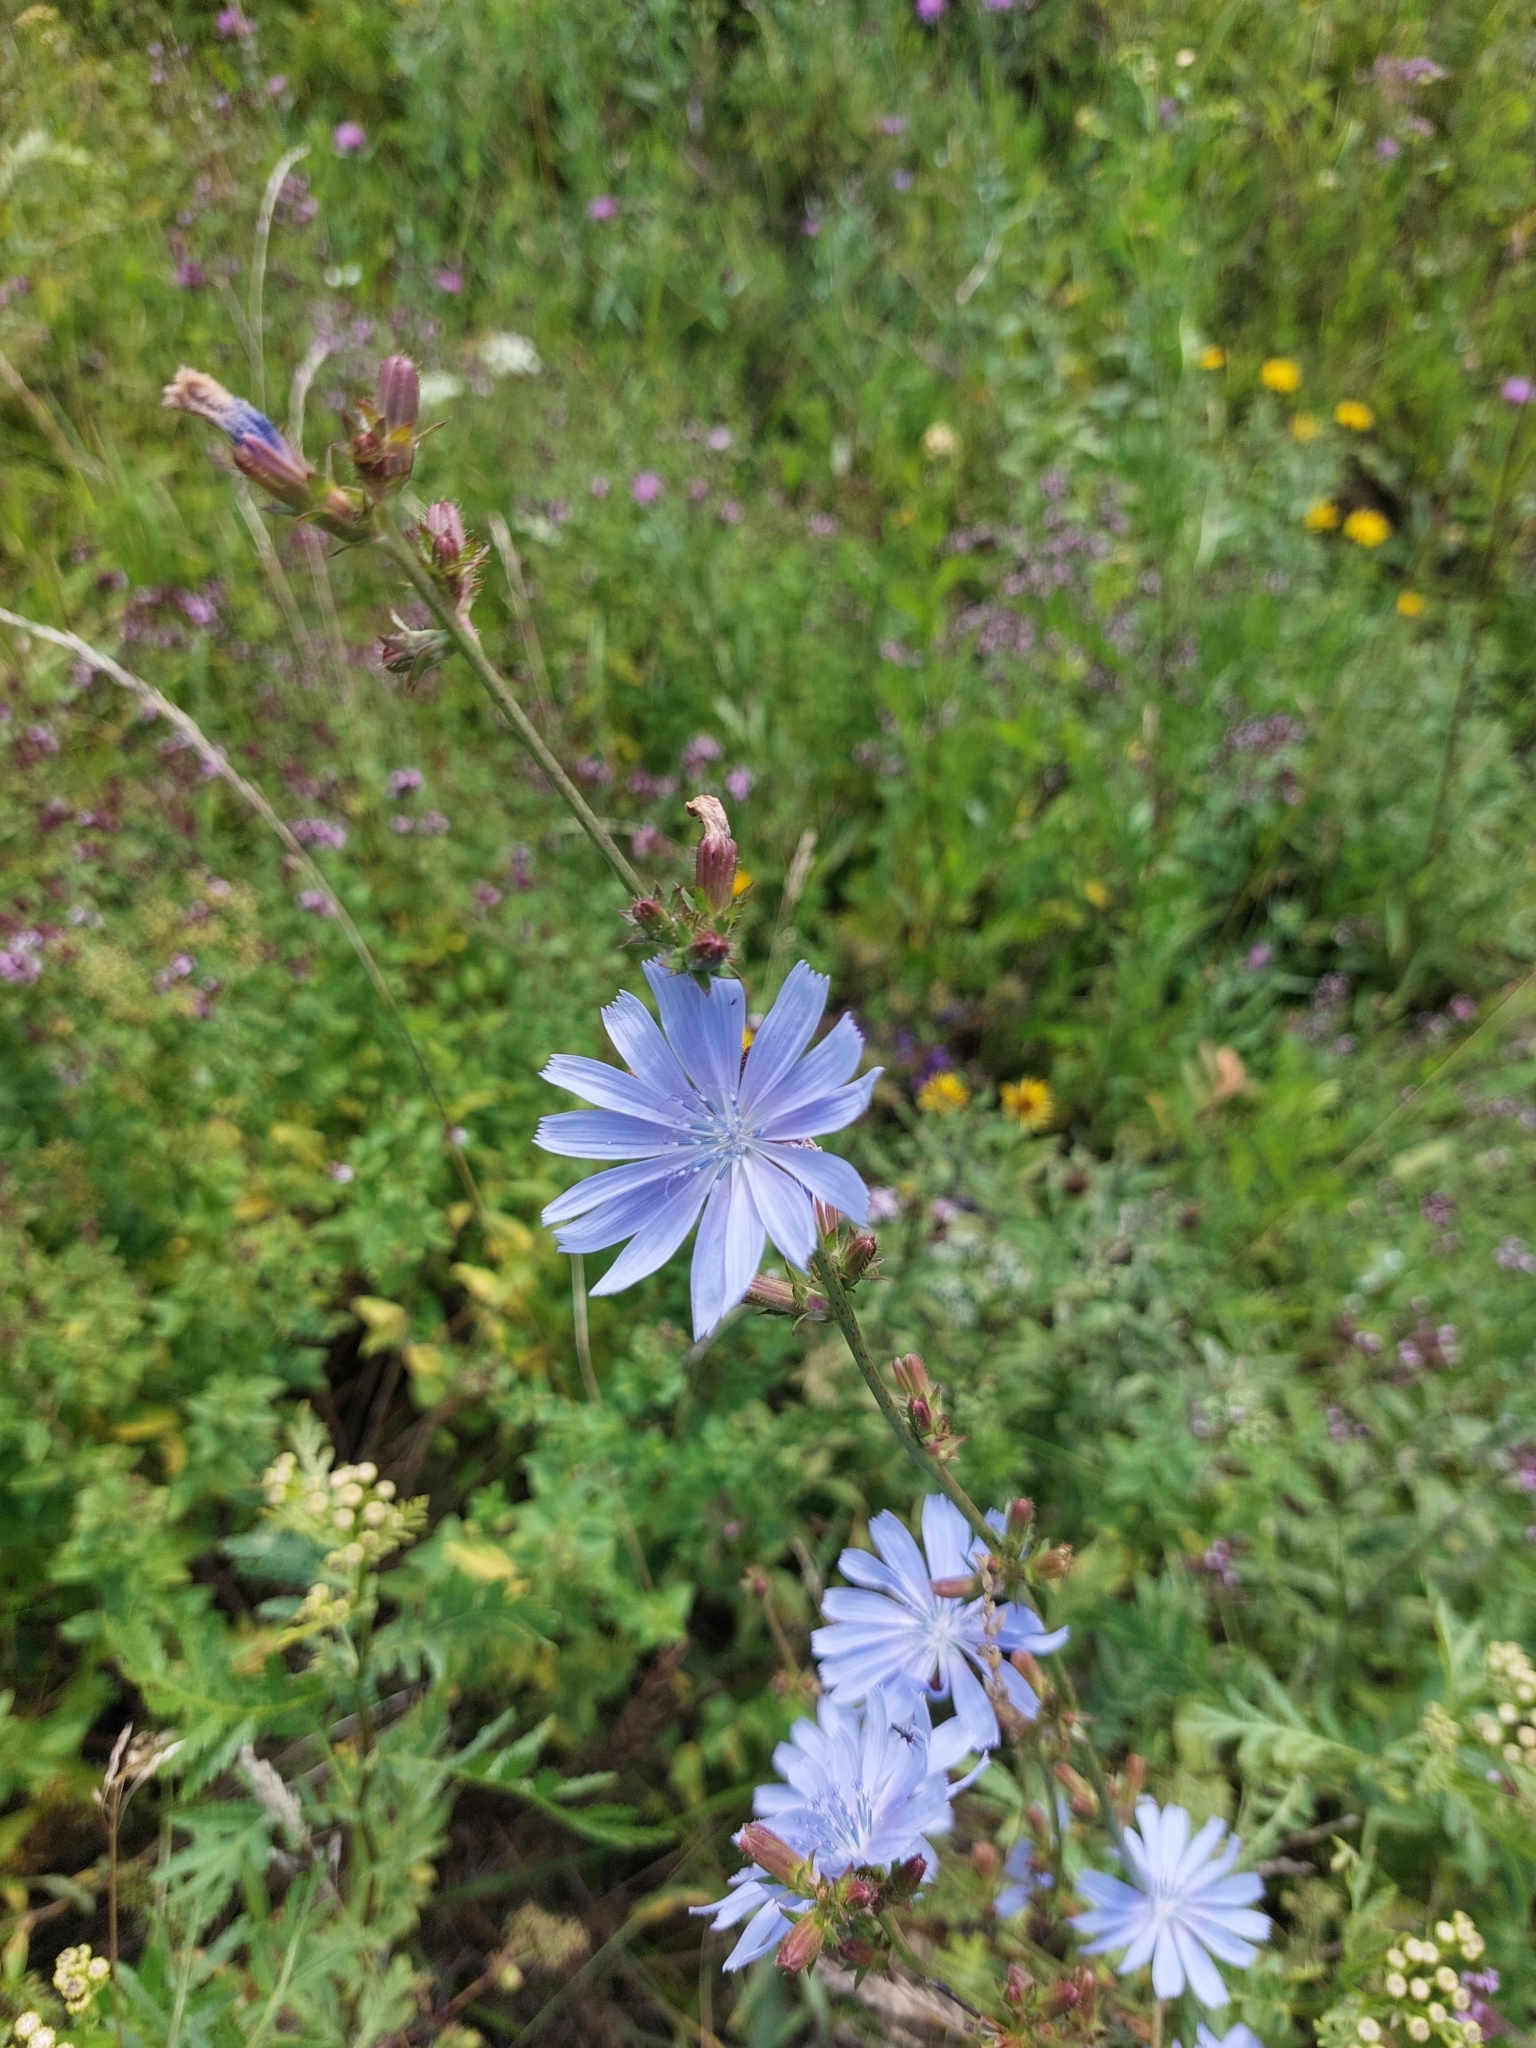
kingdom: Plantae
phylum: Tracheophyta
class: Magnoliopsida
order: Asterales
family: Asteraceae
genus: Cichorium
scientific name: Cichorium intybus
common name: Chicory
